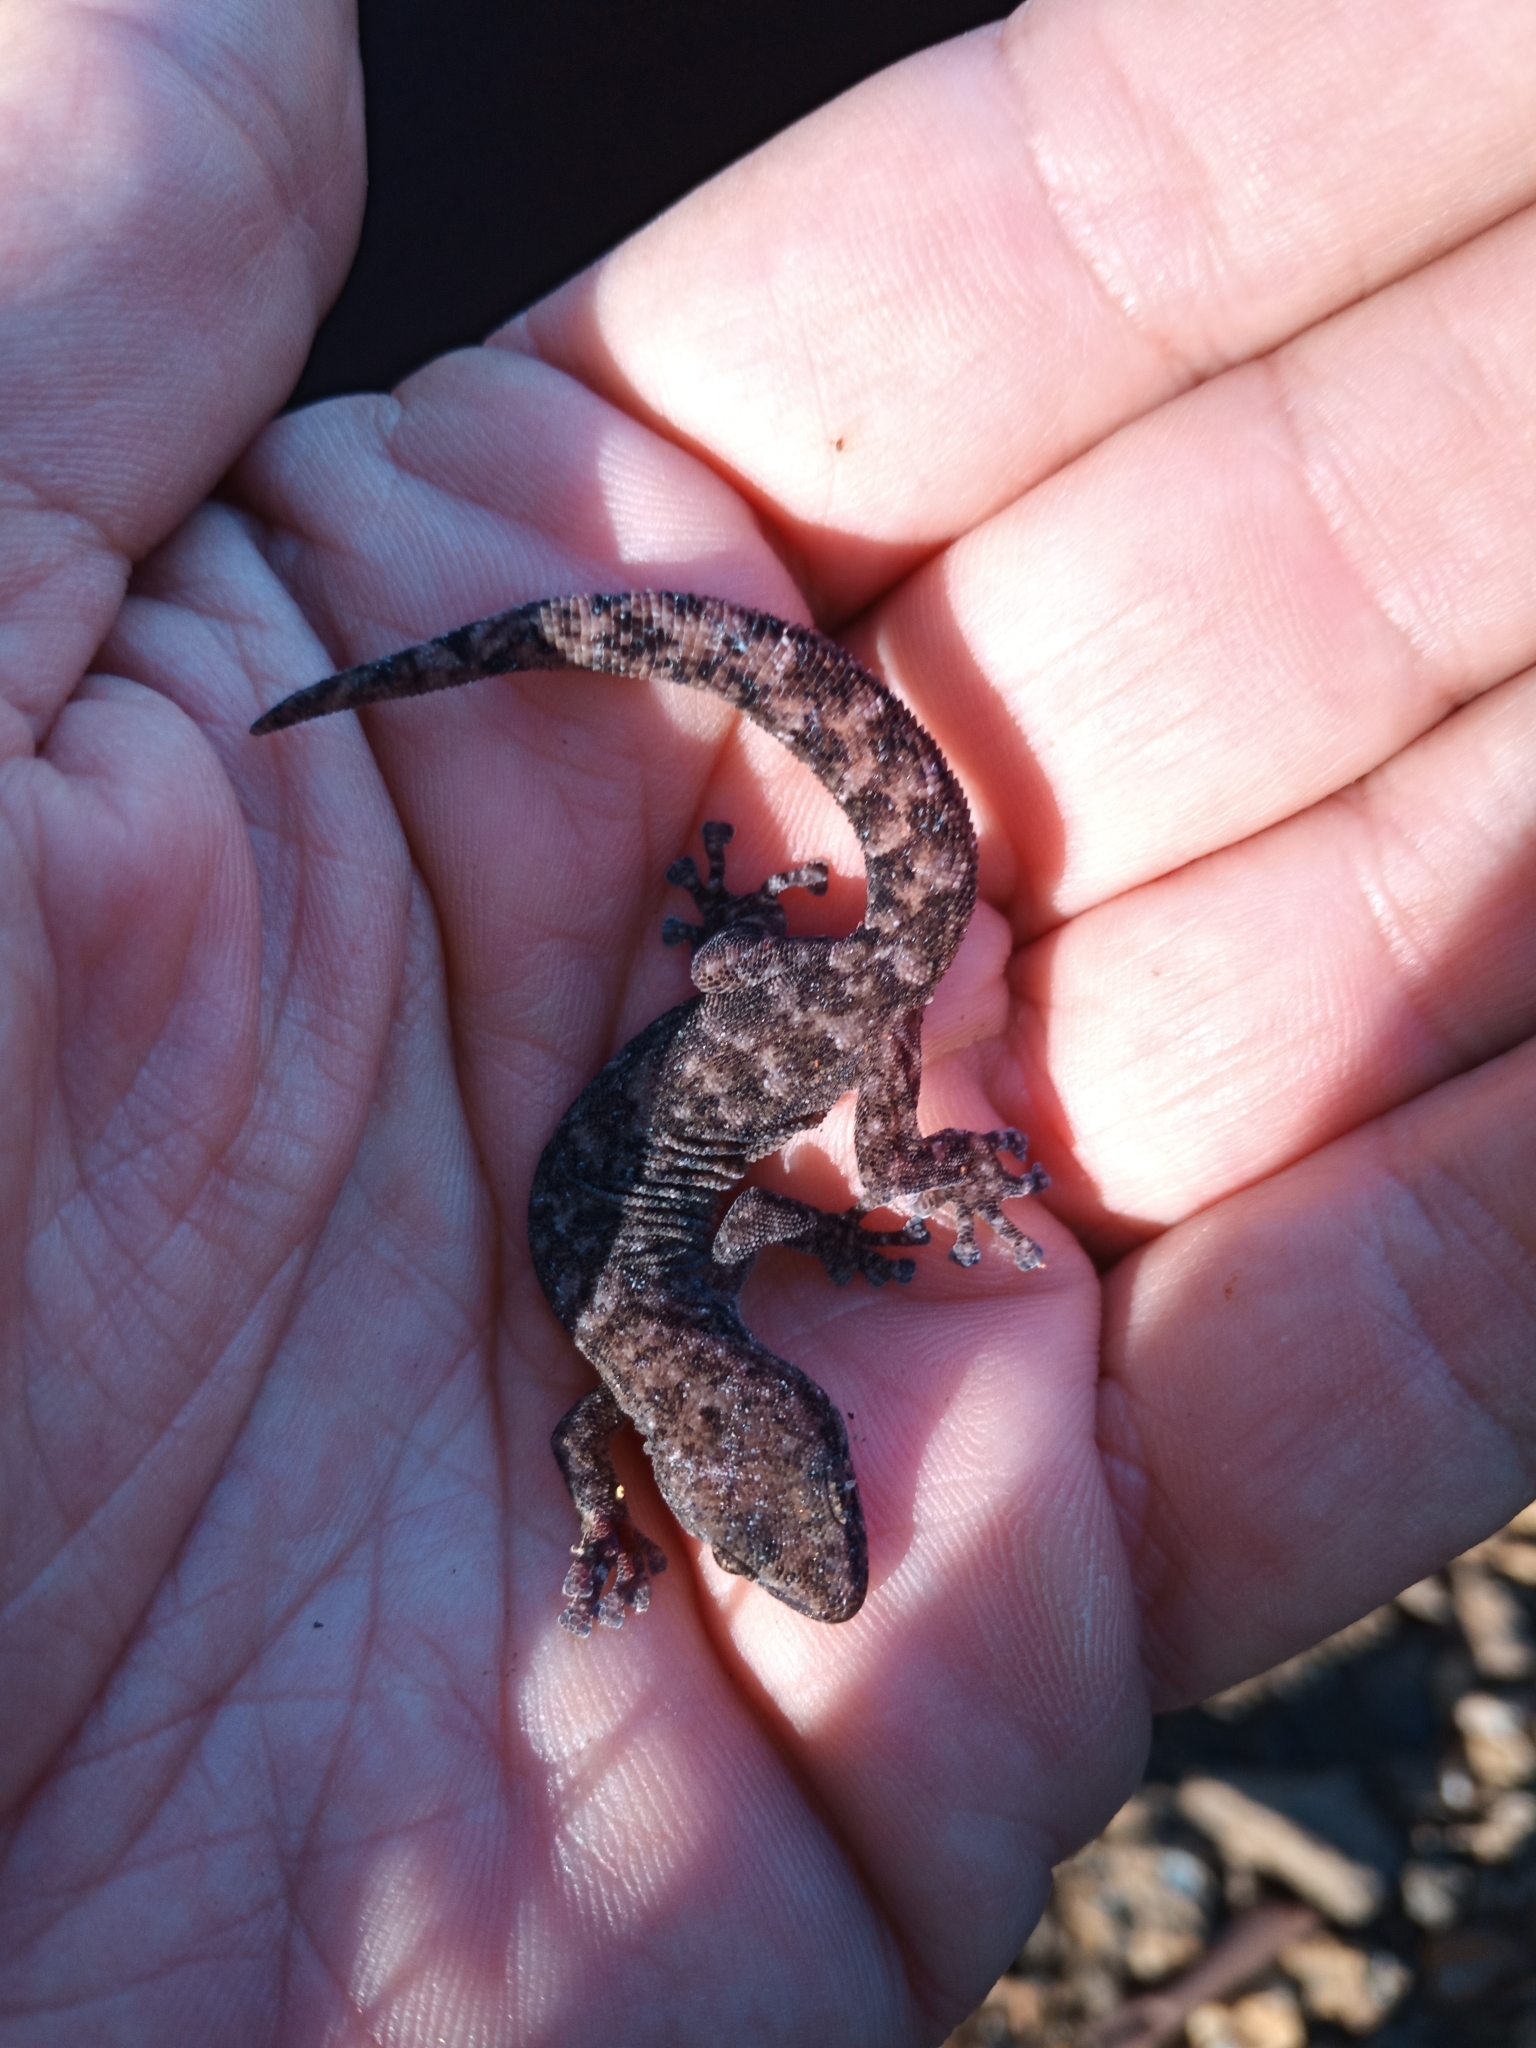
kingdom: Animalia
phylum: Chordata
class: Squamata
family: Gekkonidae
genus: Afrogecko
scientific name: Afrogecko porphyreus
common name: Marbled leaf-toed gecko
